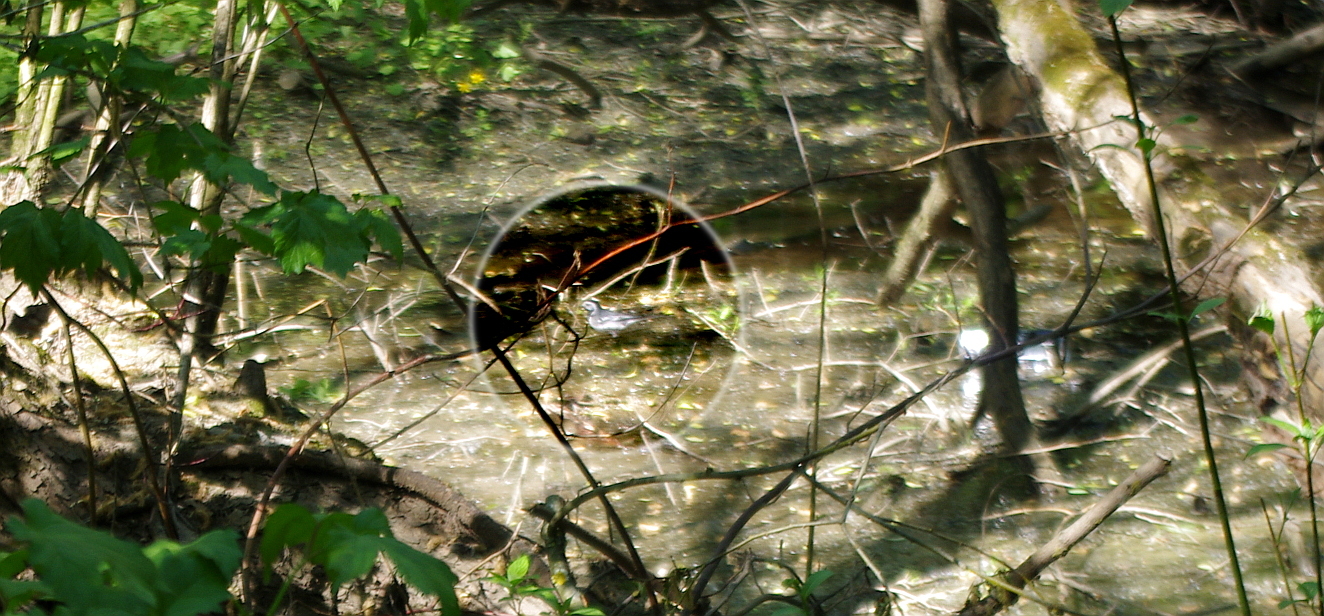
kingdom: Animalia
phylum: Chordata
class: Aves
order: Passeriformes
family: Motacillidae
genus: Motacilla
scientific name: Motacilla alba
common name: White wagtail
